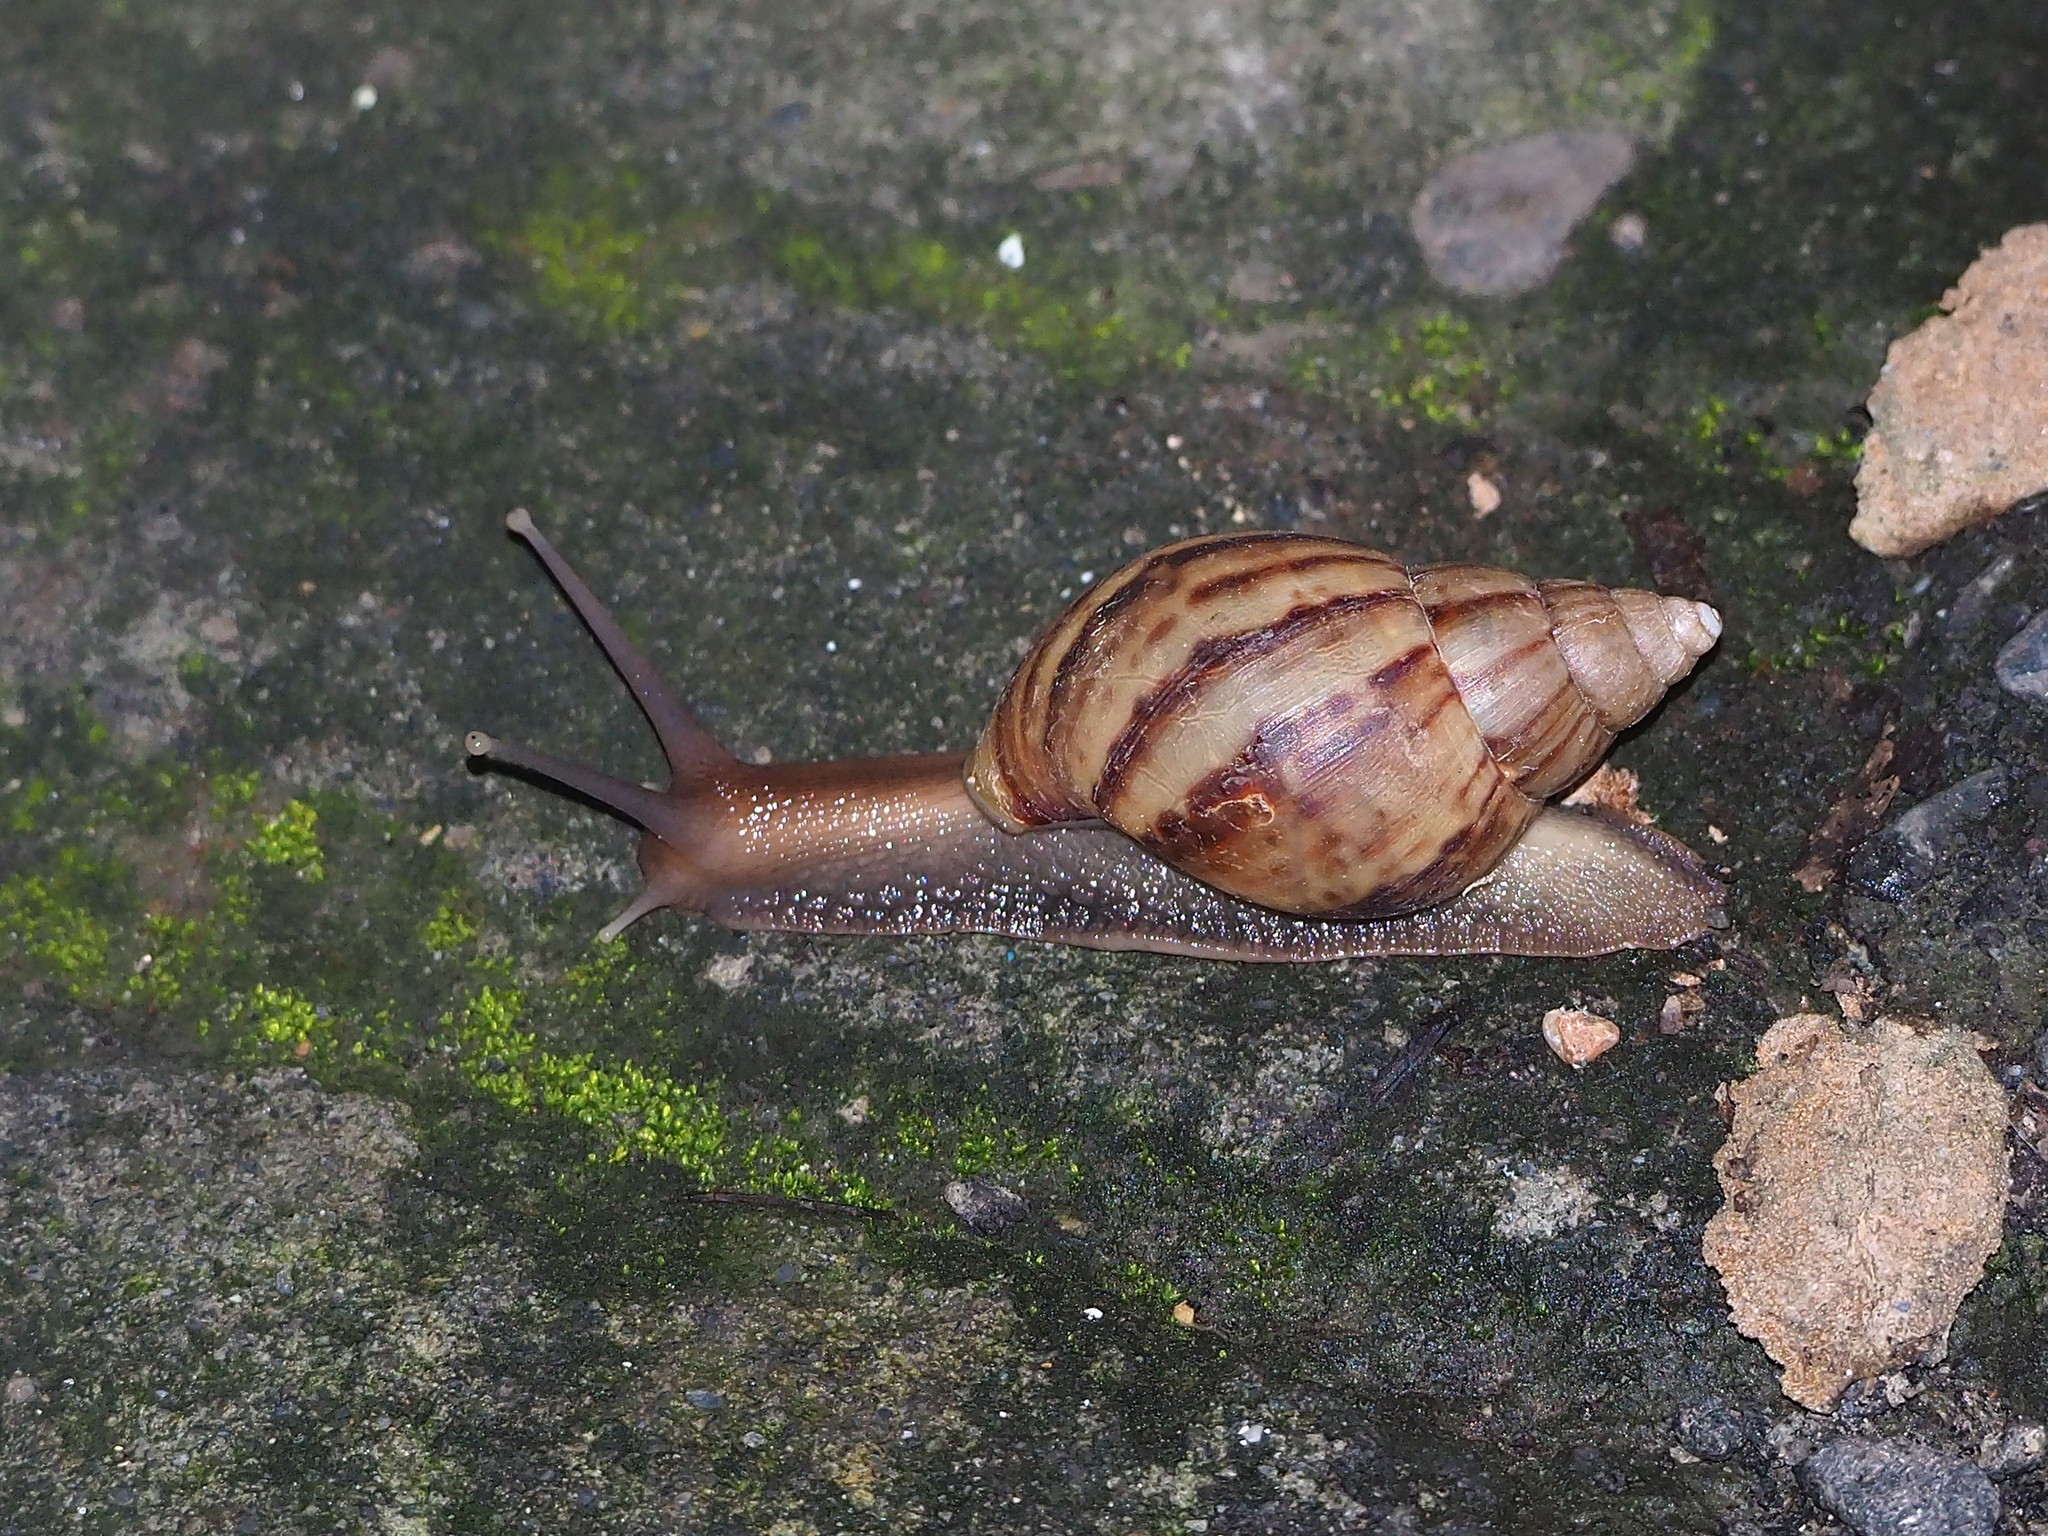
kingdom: Animalia
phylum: Mollusca
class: Gastropoda
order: Stylommatophora
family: Achatinidae
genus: Lissachatina
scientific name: Lissachatina fulica
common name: Giant african snail
